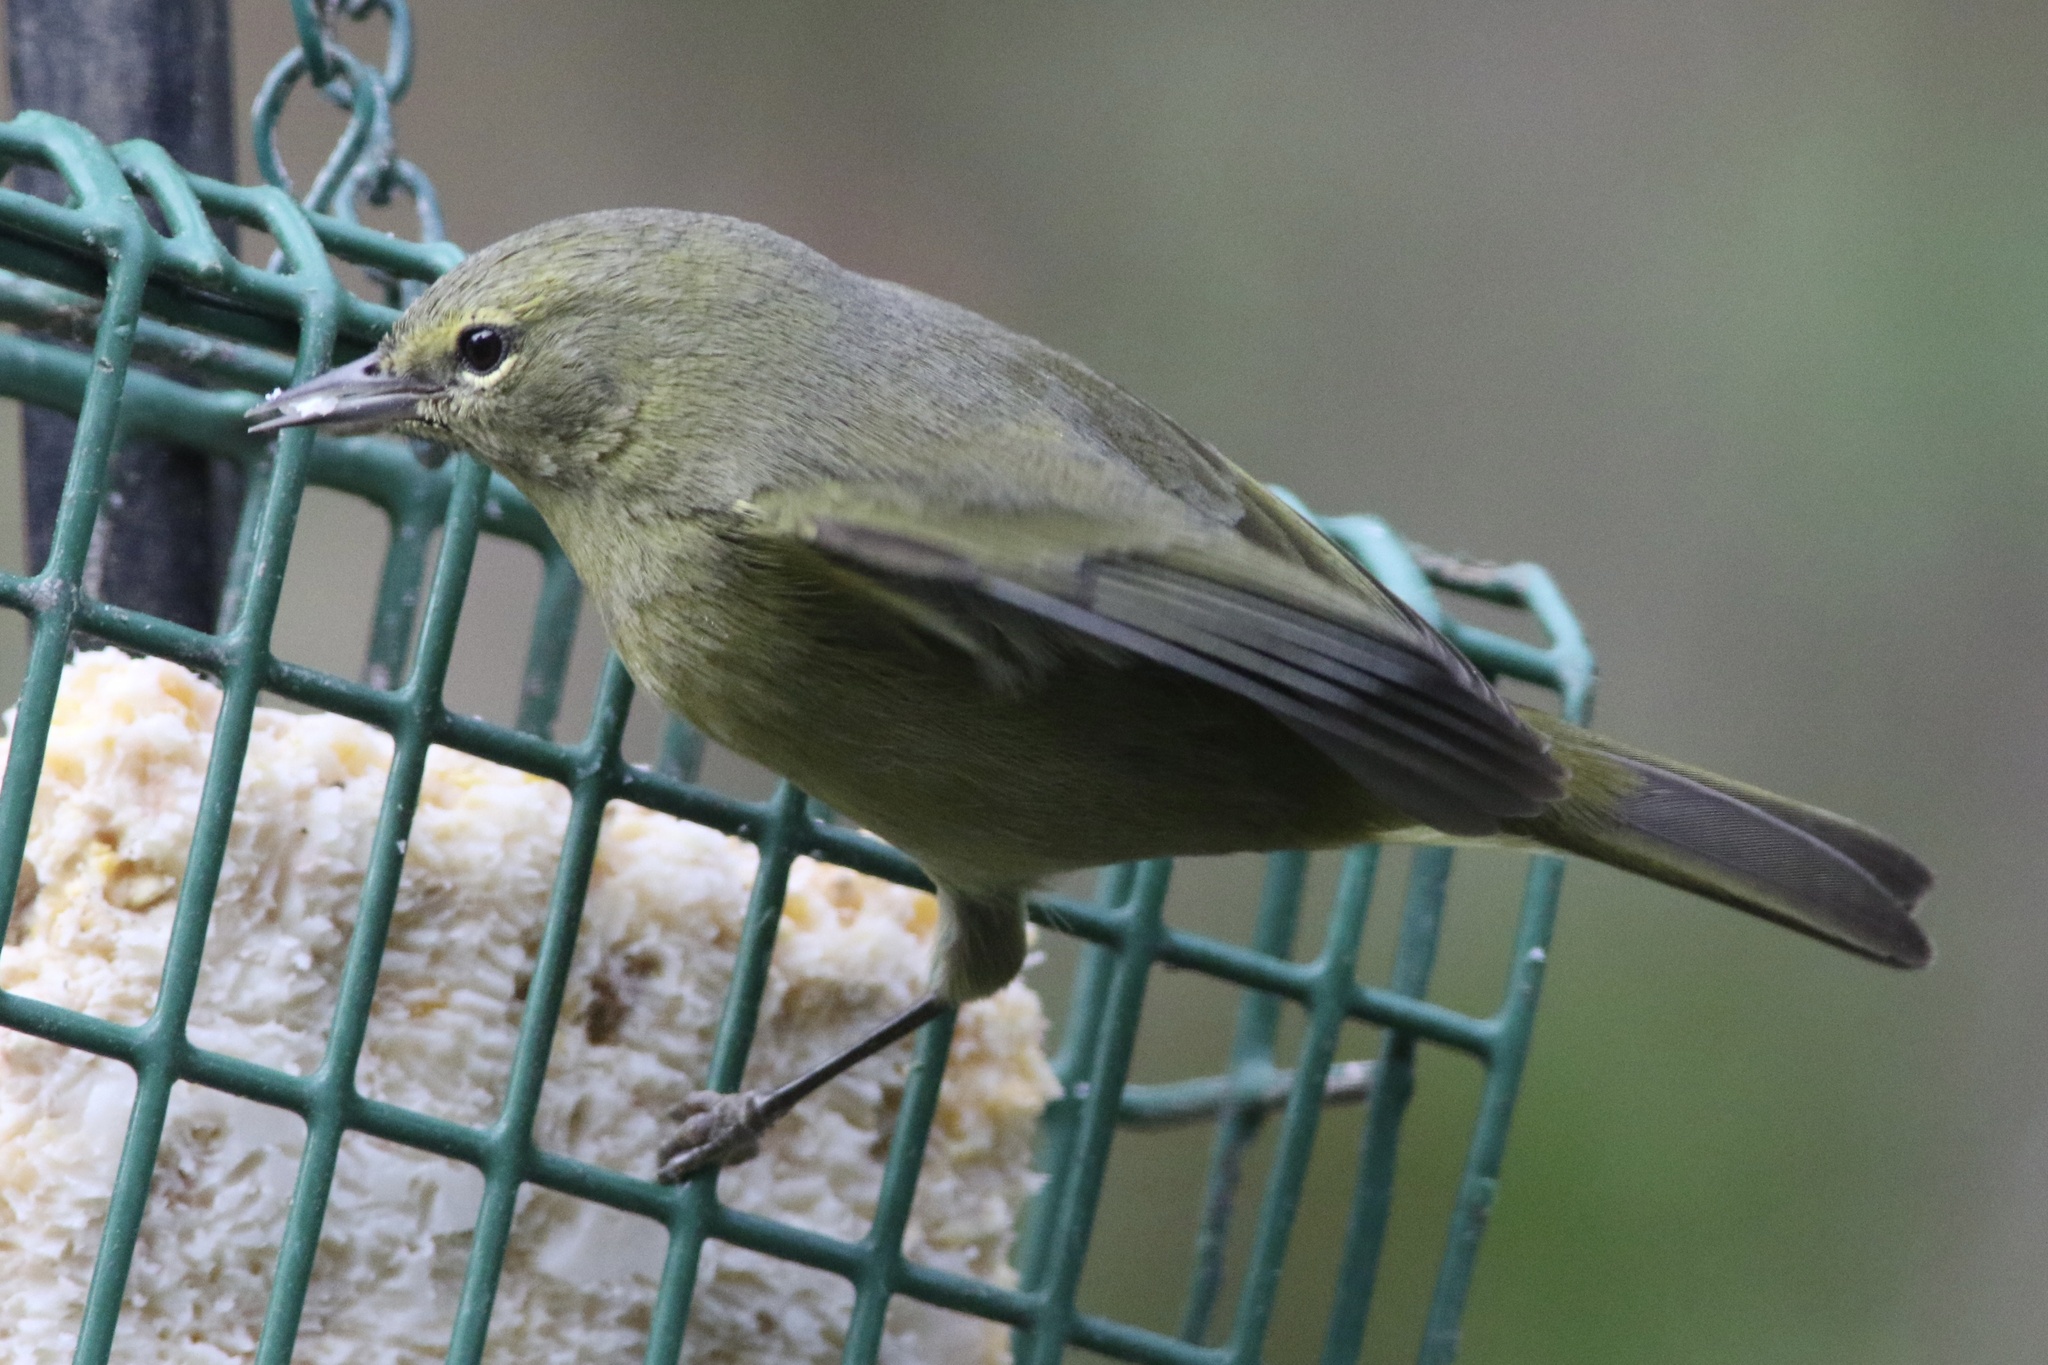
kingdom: Animalia
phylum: Chordata
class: Aves
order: Passeriformes
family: Parulidae
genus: Leiothlypis
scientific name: Leiothlypis celata
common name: Orange-crowned warbler
